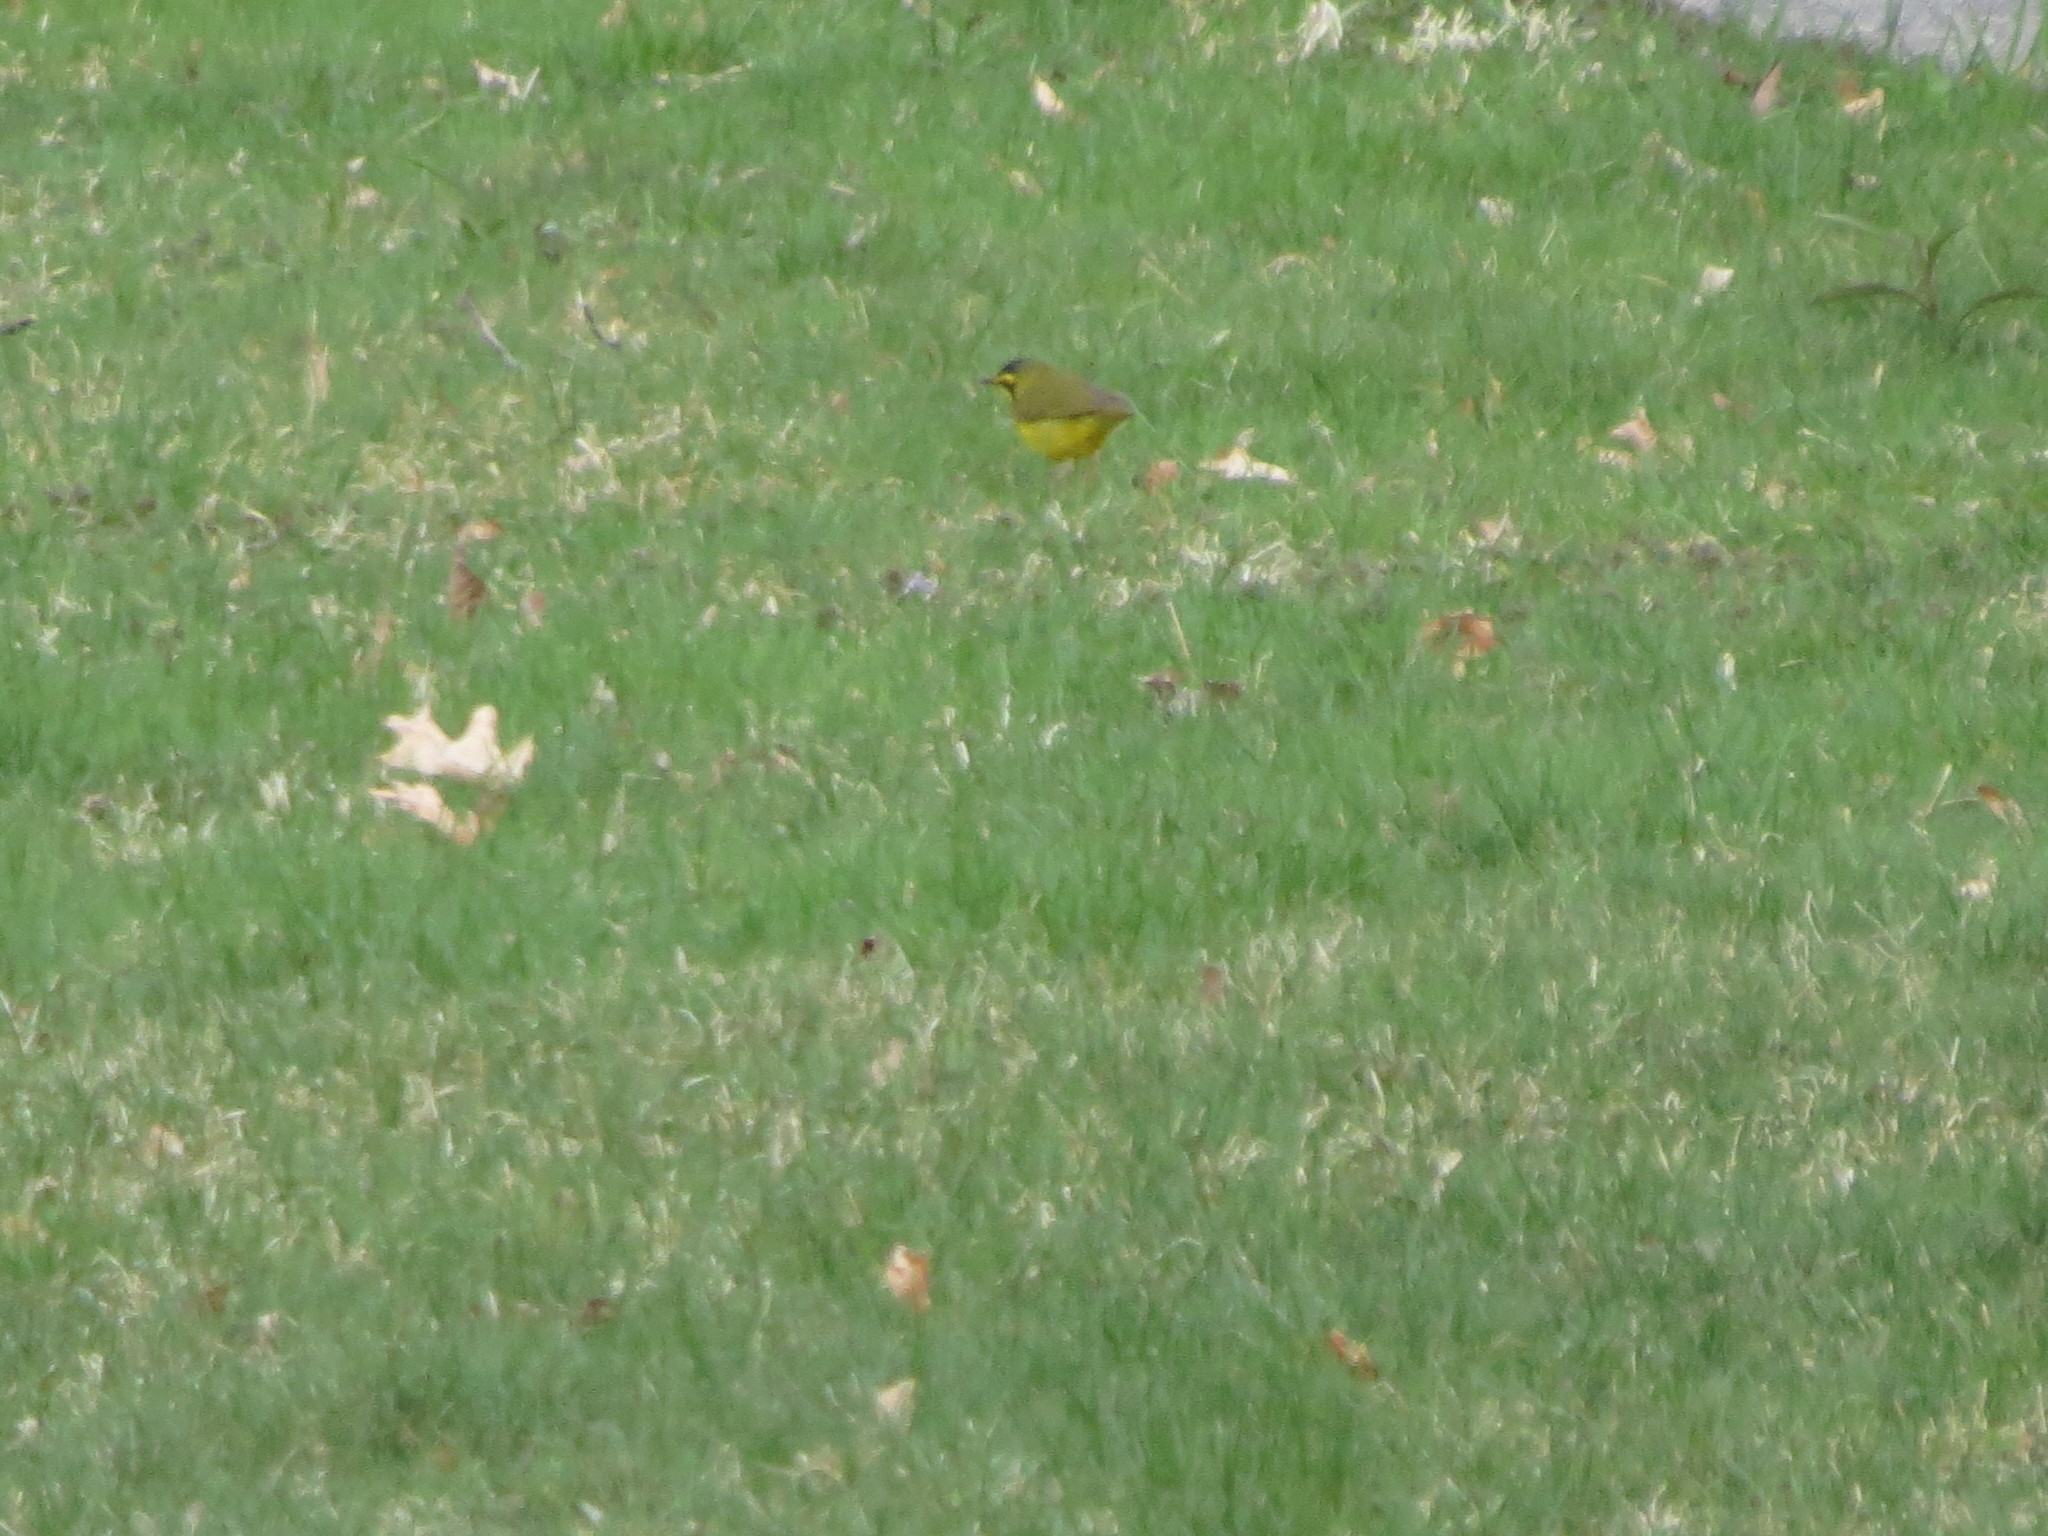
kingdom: Animalia
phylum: Chordata
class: Aves
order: Passeriformes
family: Parulidae
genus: Geothlypis
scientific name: Geothlypis formosa
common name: Kentucky warbler
